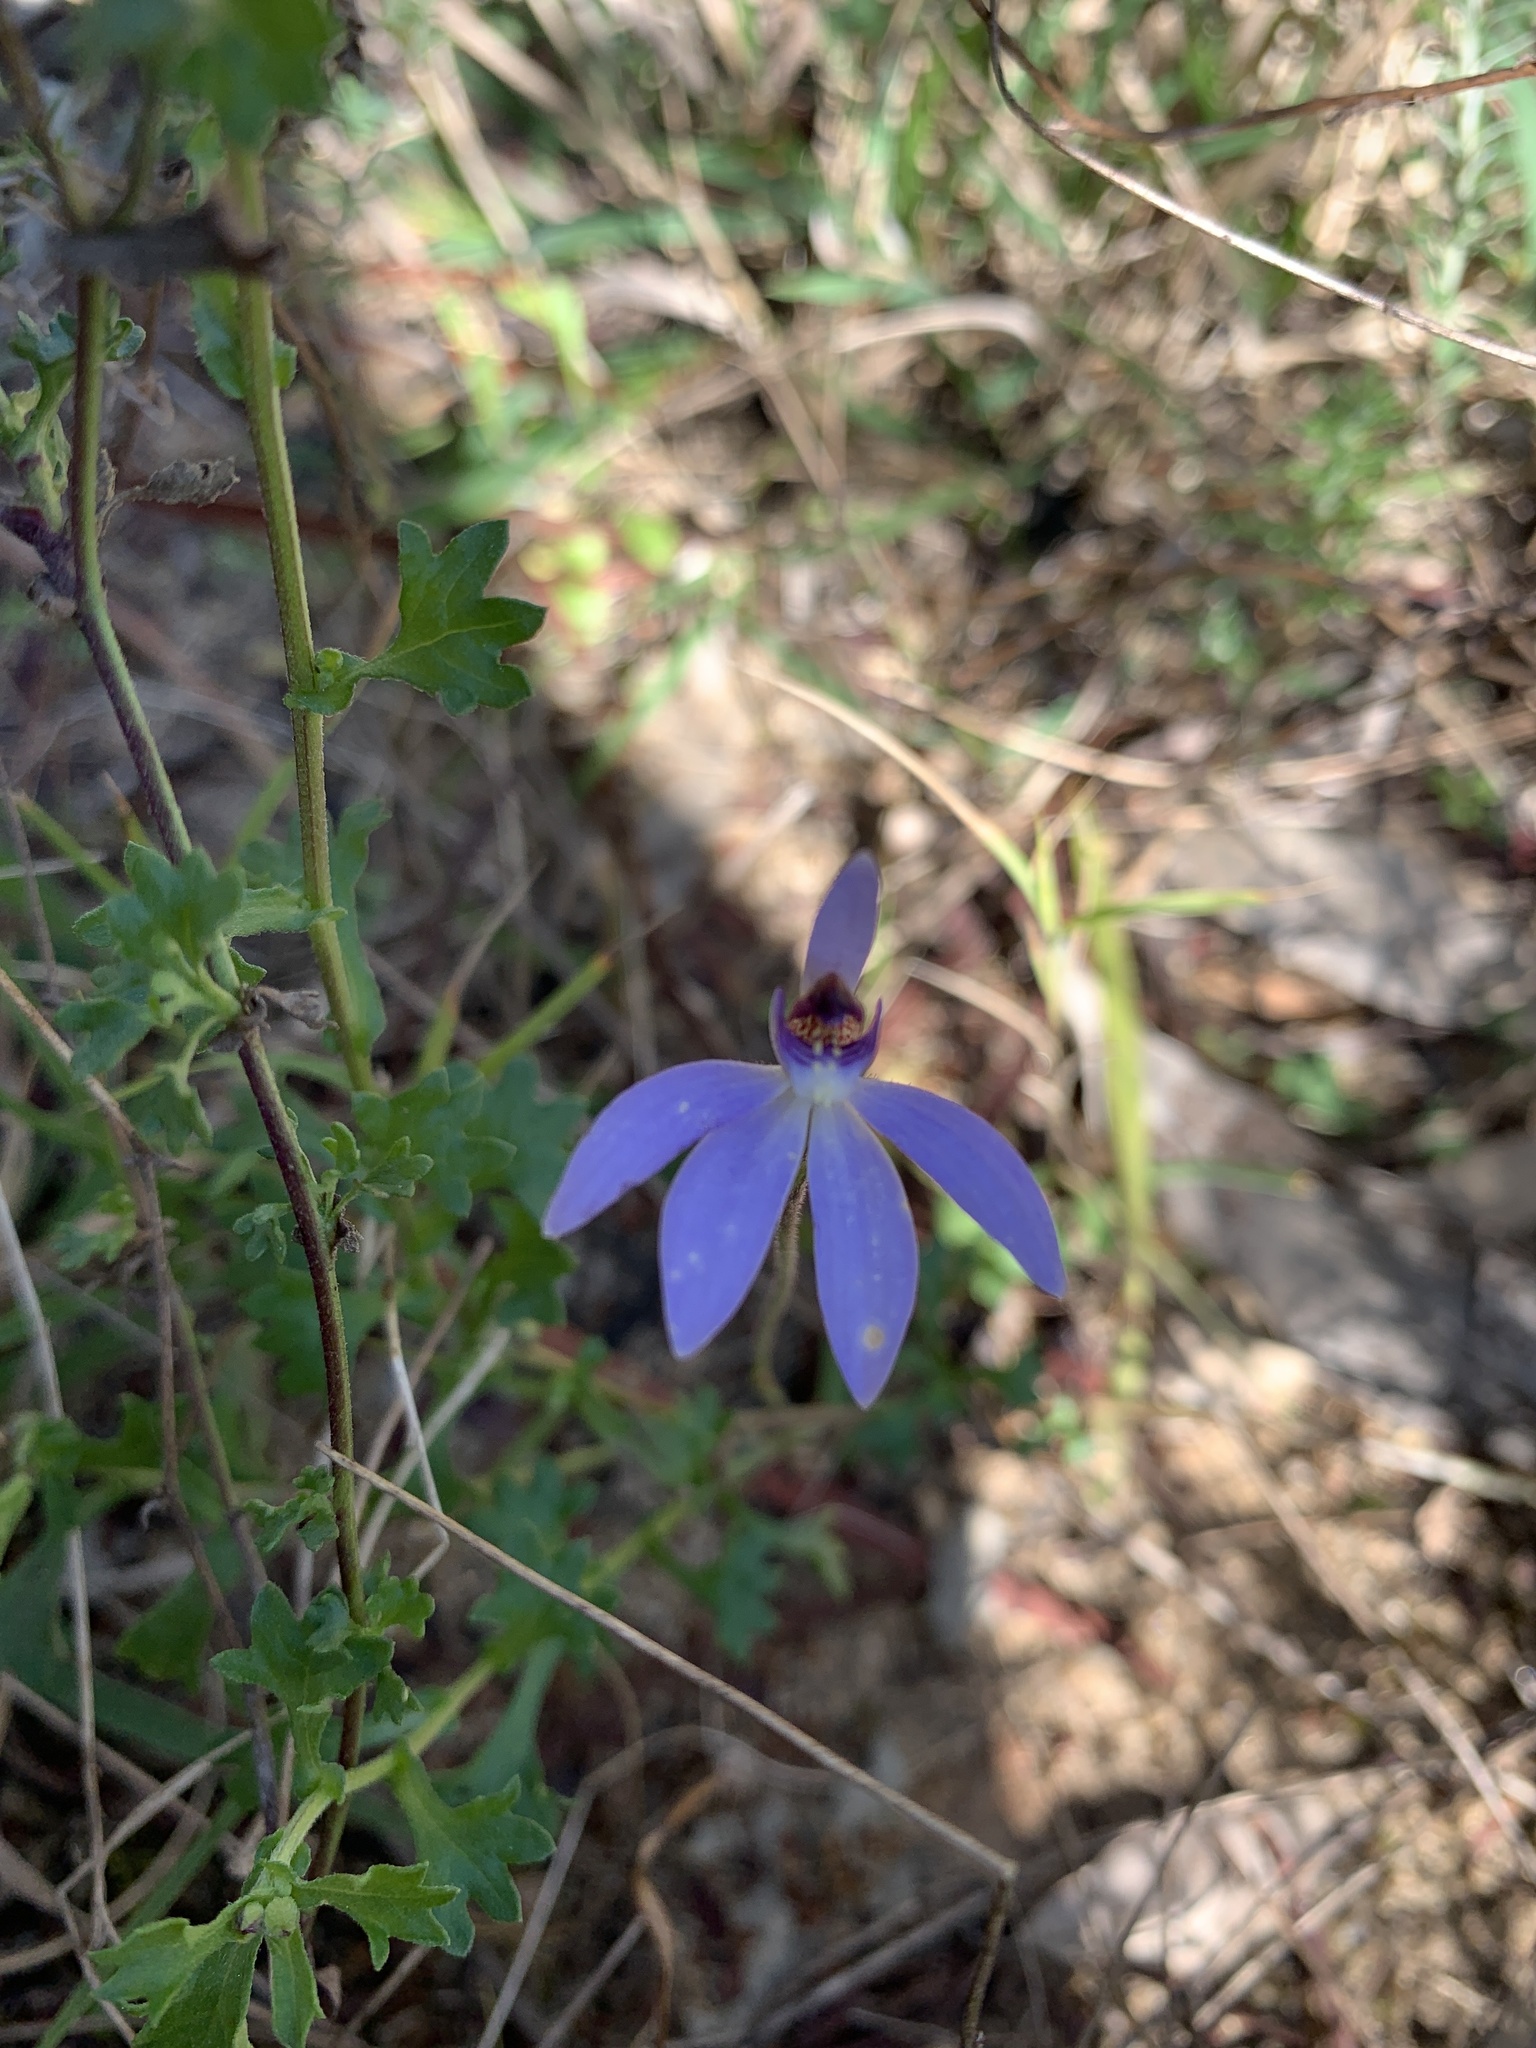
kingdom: Plantae
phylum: Tracheophyta
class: Liliopsida
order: Asparagales
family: Orchidaceae
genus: Caladenia
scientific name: Caladenia caerulea
